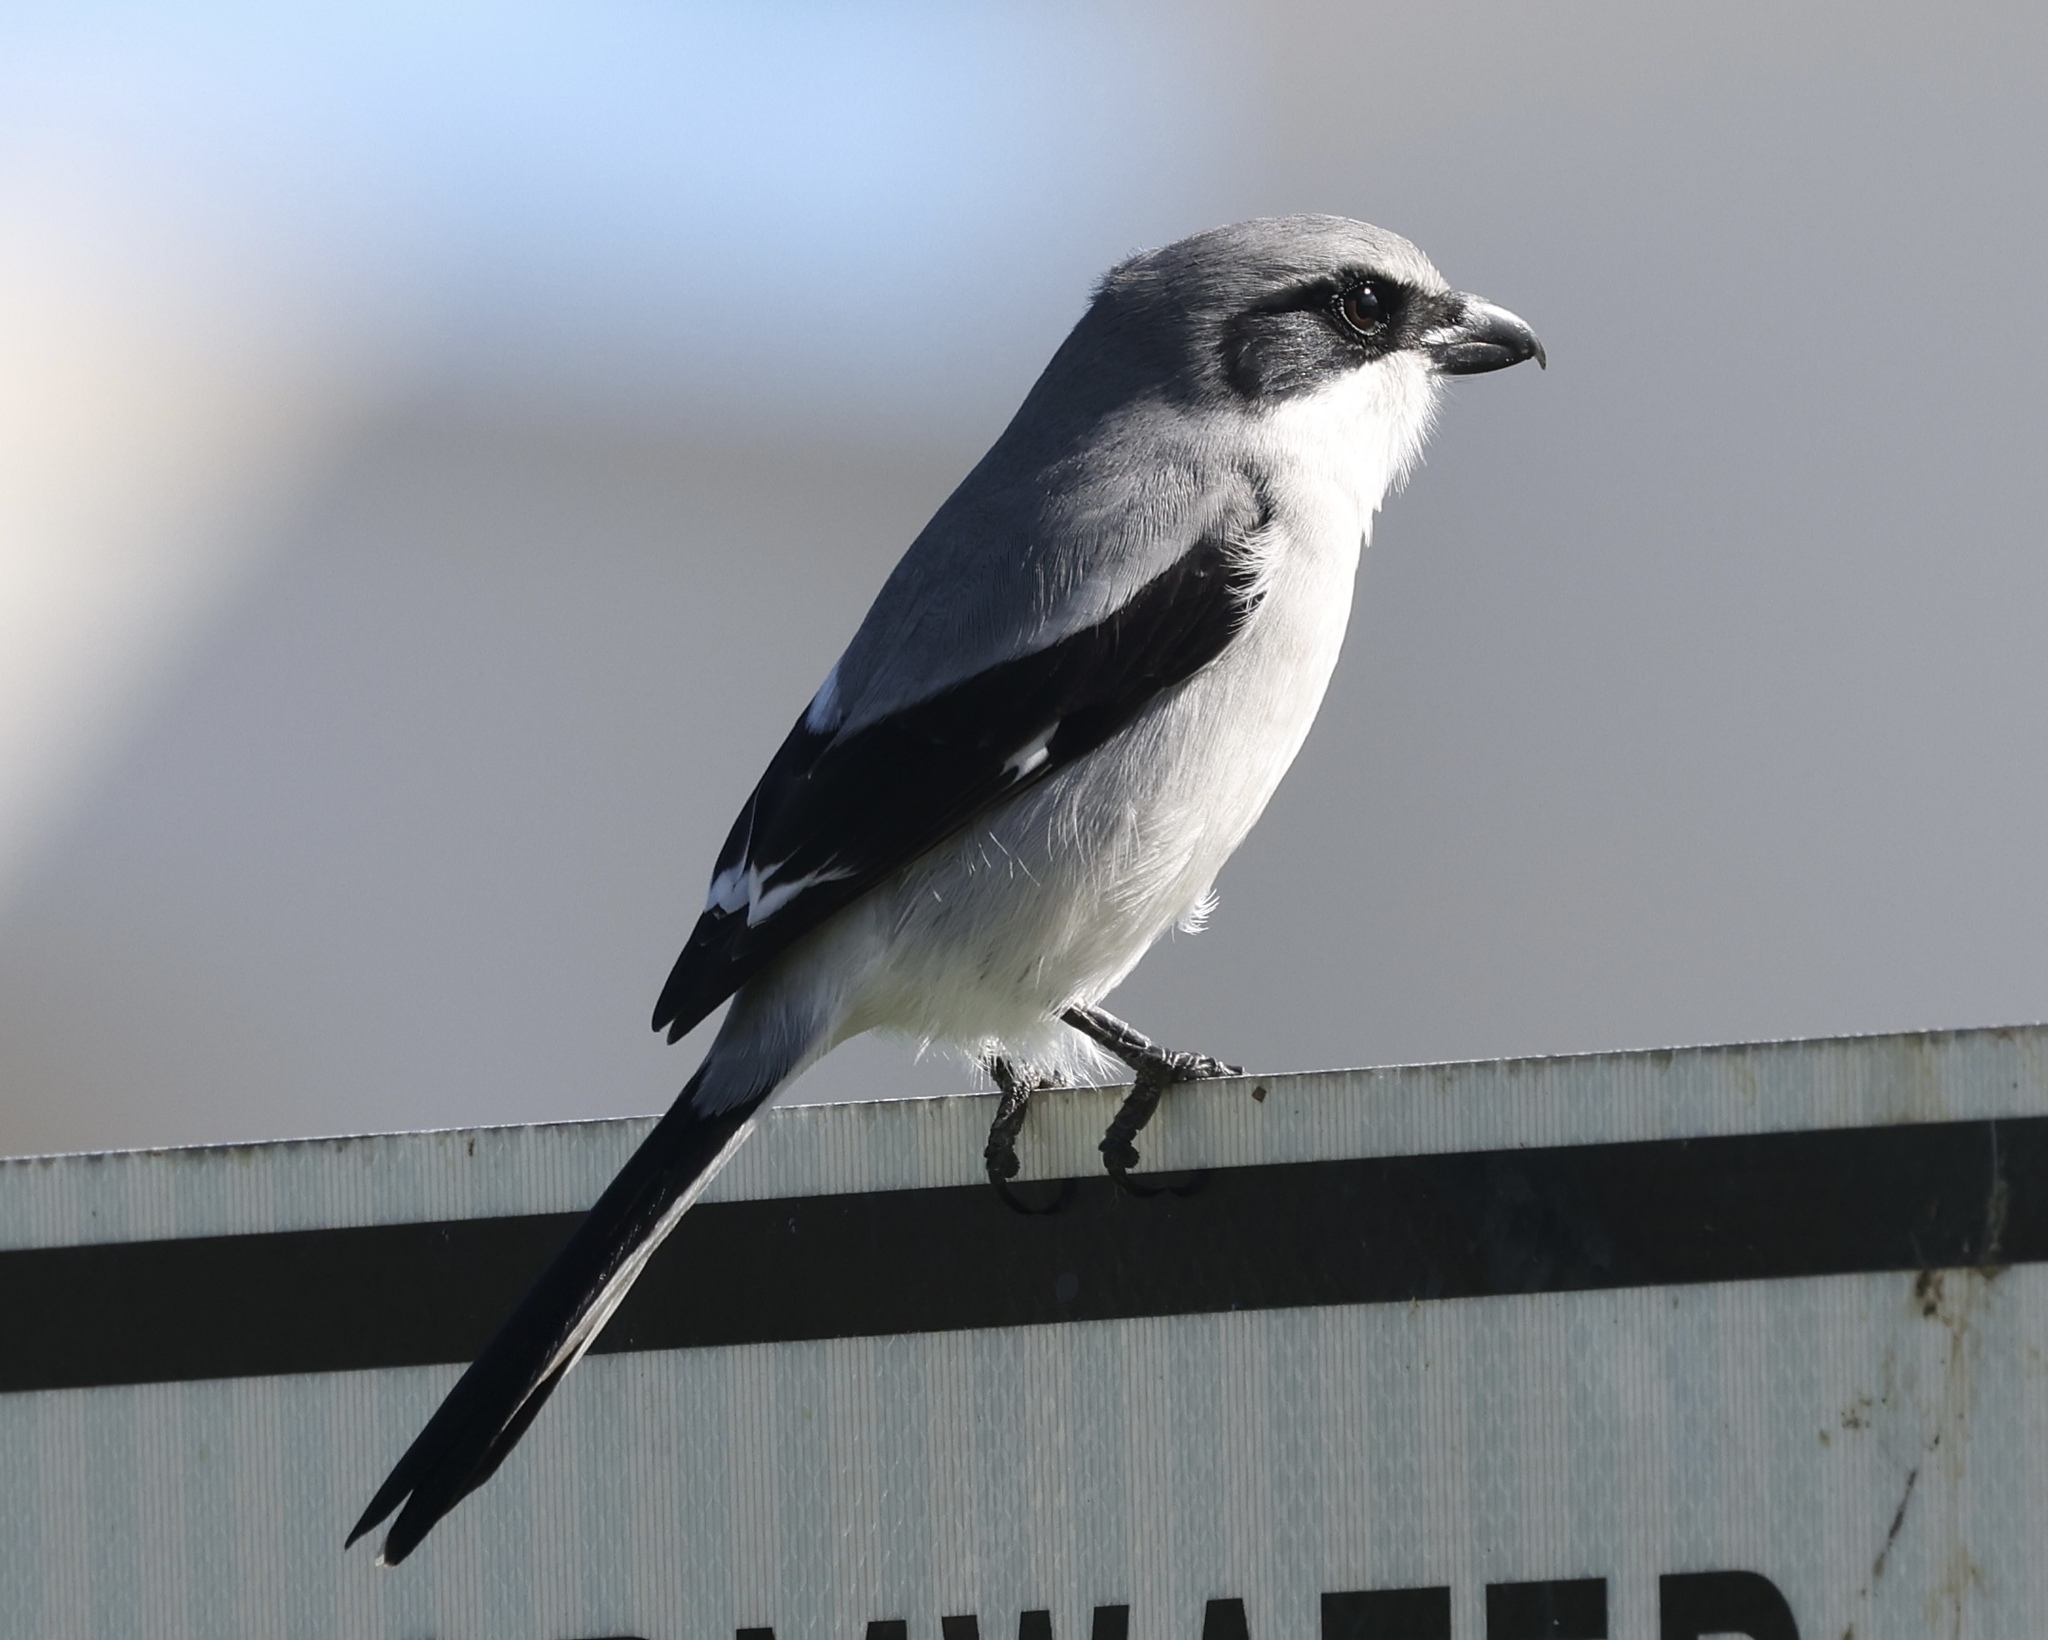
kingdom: Animalia
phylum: Chordata
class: Aves
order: Passeriformes
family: Laniidae
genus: Lanius
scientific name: Lanius ludovicianus
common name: Loggerhead shrike
